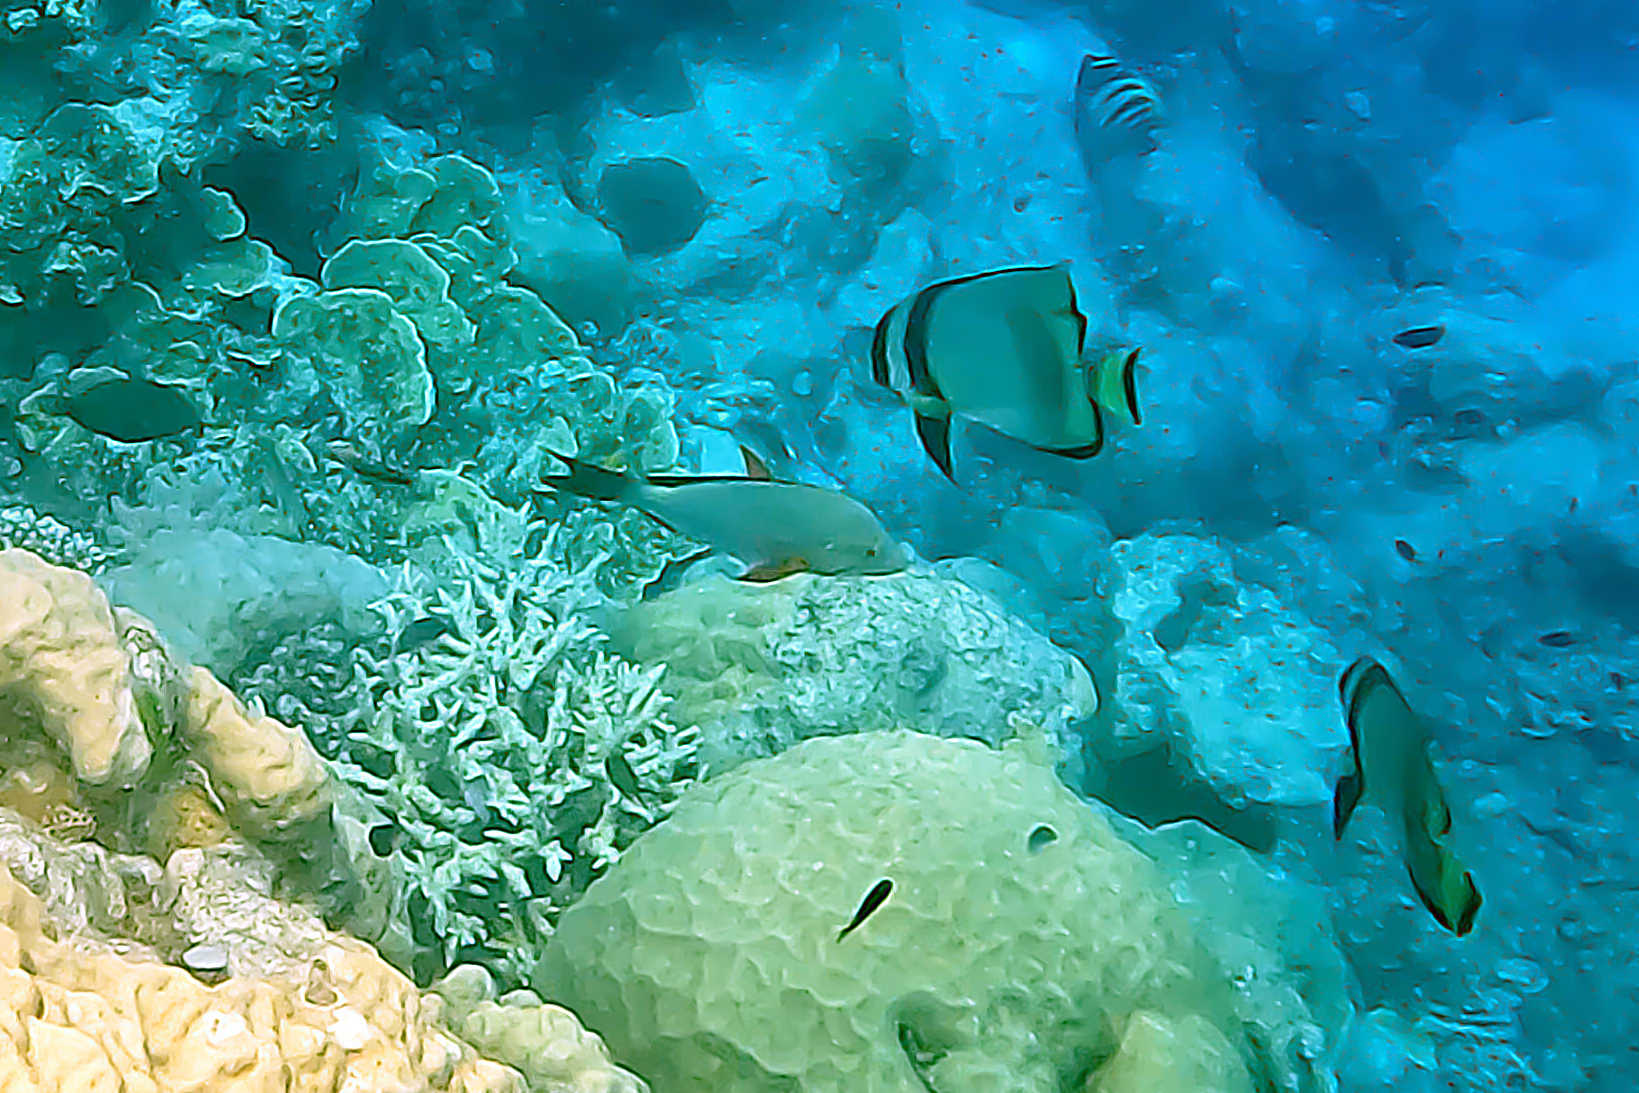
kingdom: Animalia
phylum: Chordata
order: Perciformes
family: Lutjanidae
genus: Lutjanus
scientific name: Lutjanus gibbus
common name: Humpback snapper
